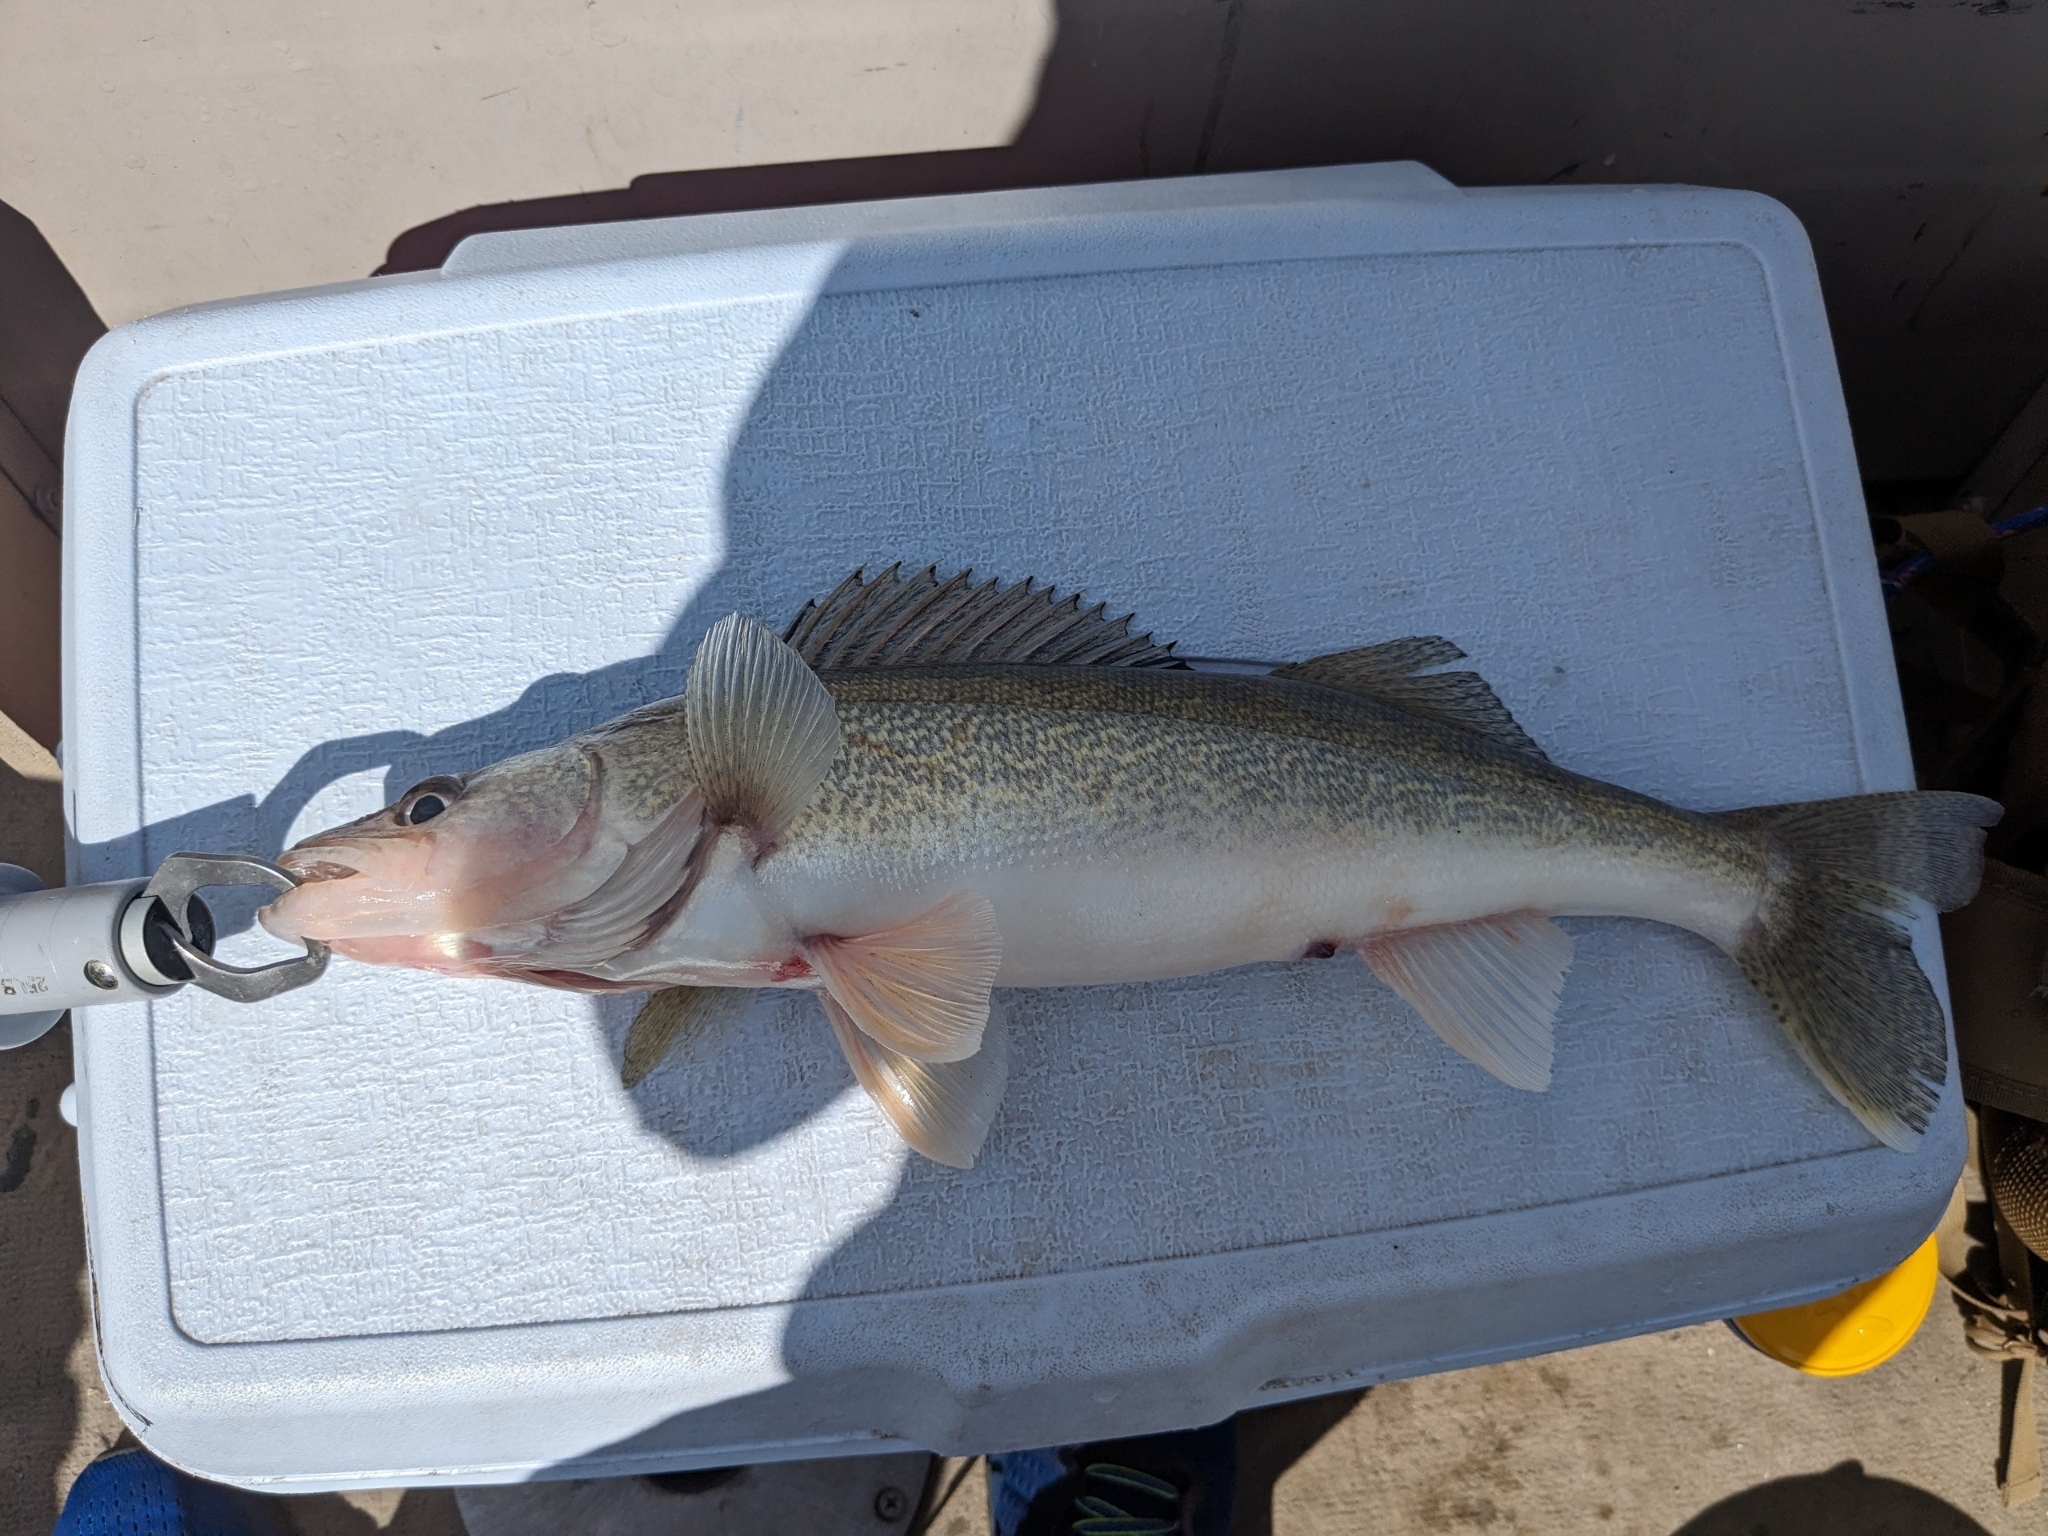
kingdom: Animalia
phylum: Chordata
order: Perciformes
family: Percidae
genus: Sander
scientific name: Sander vitreus
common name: Walleye
